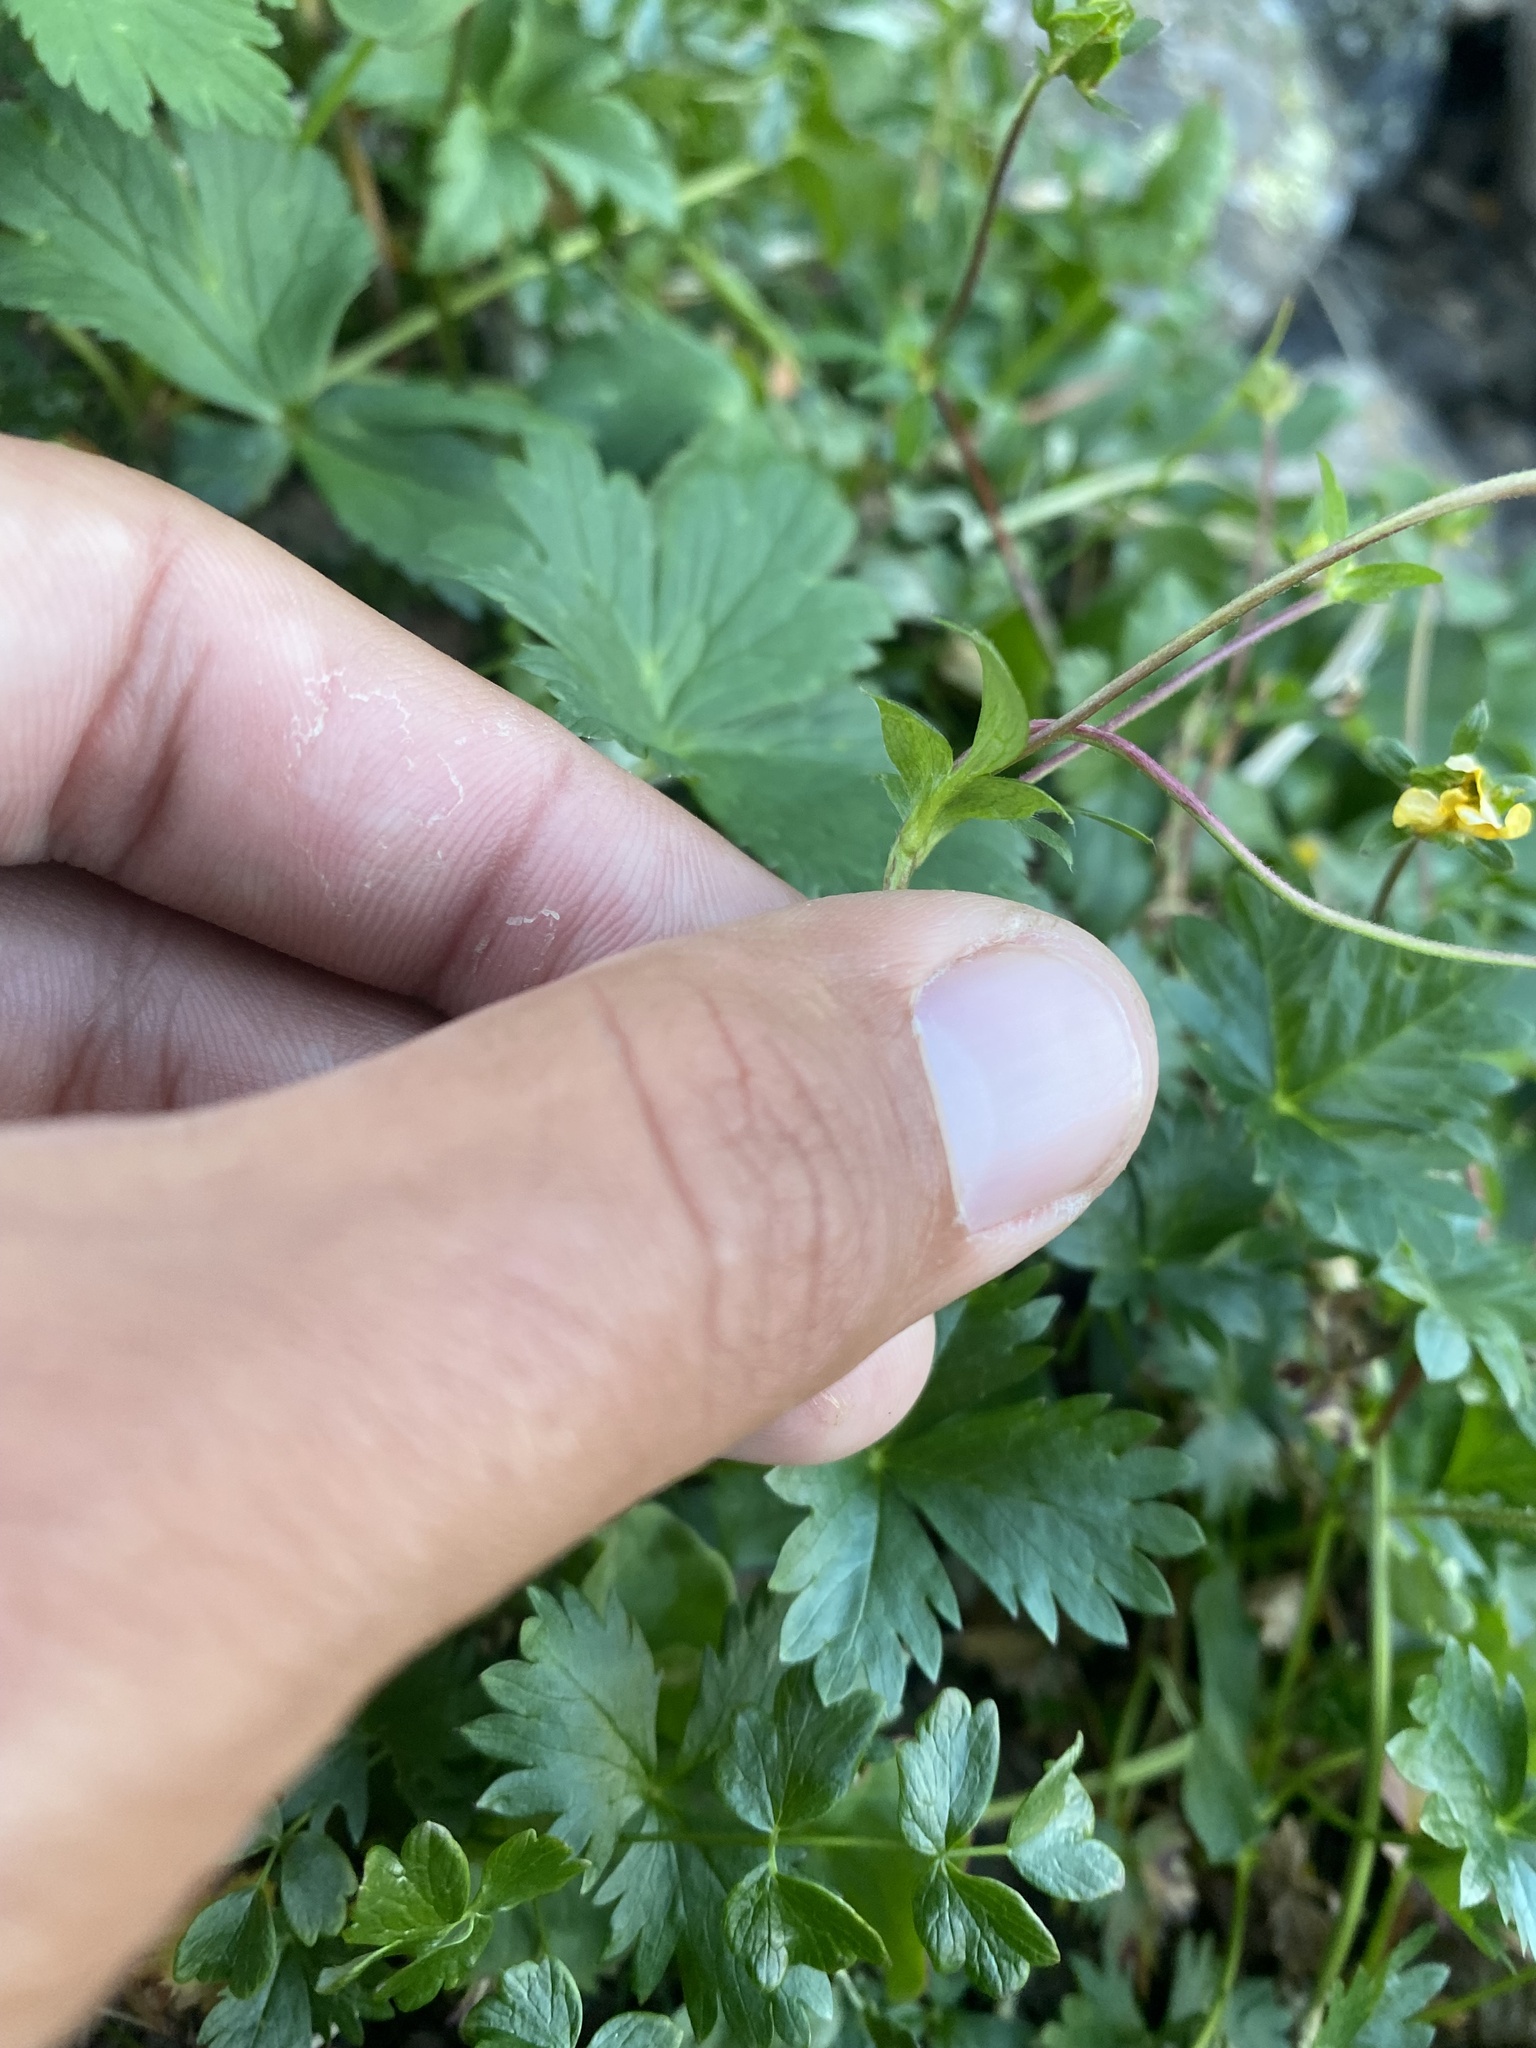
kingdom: Plantae
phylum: Tracheophyta
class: Magnoliopsida
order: Rosales
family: Rosaceae
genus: Potentilla
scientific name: Potentilla
